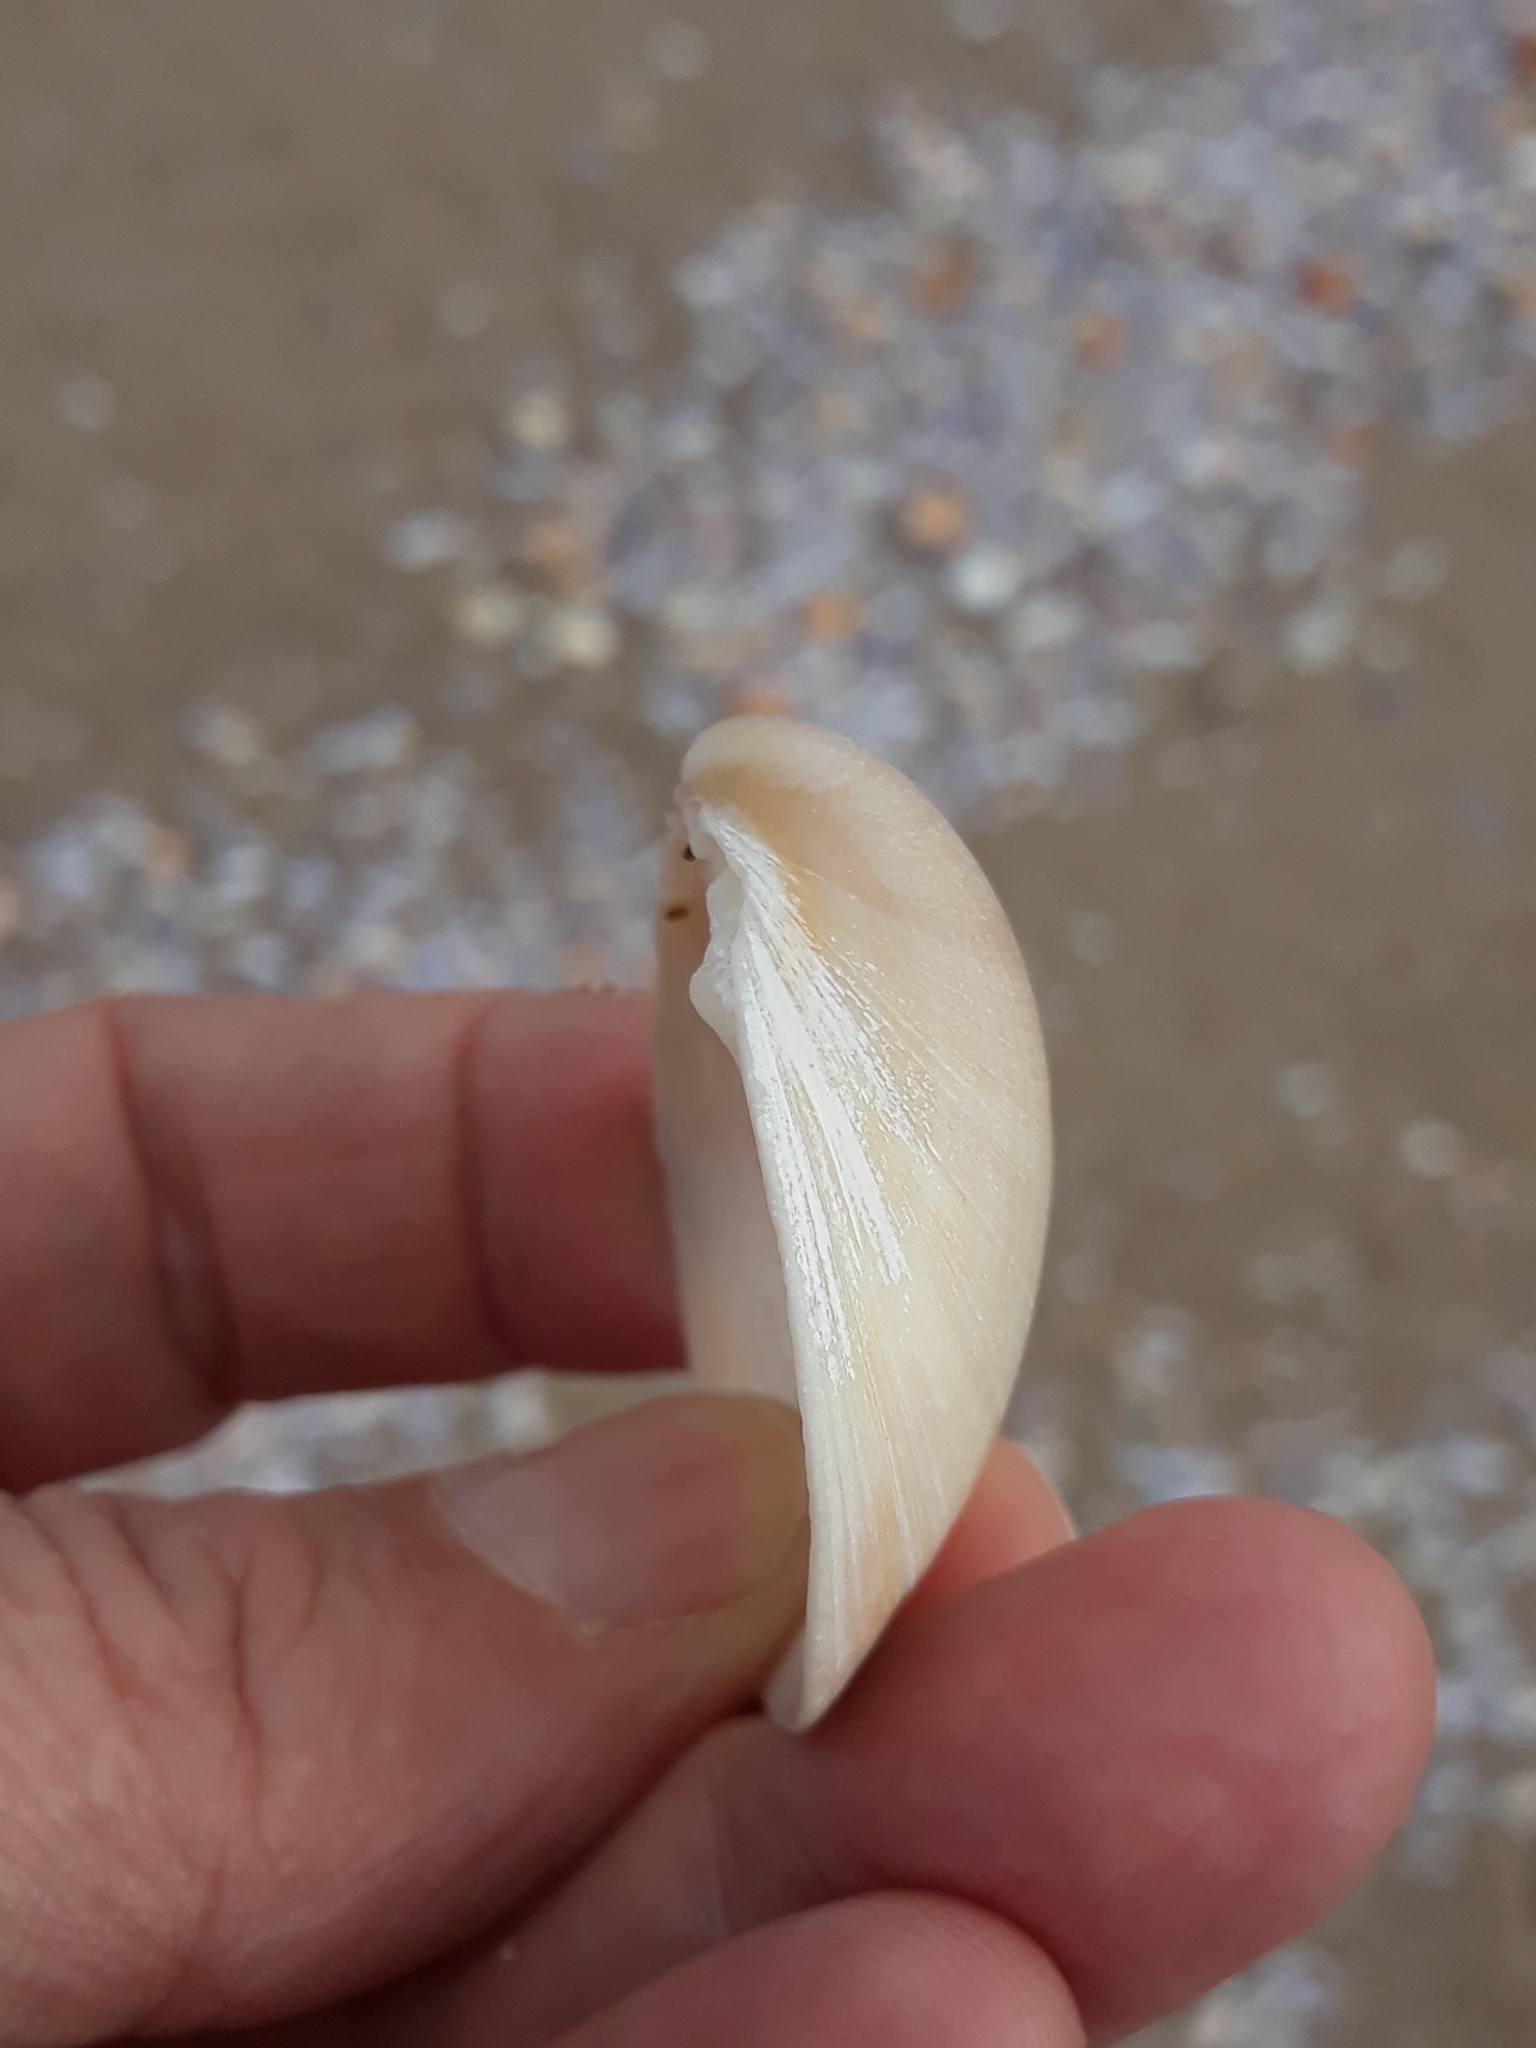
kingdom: Animalia
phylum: Mollusca
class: Bivalvia
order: Venerida
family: Mactridae
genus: Mactra
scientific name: Mactra stultorum
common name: Rayed trough shell
